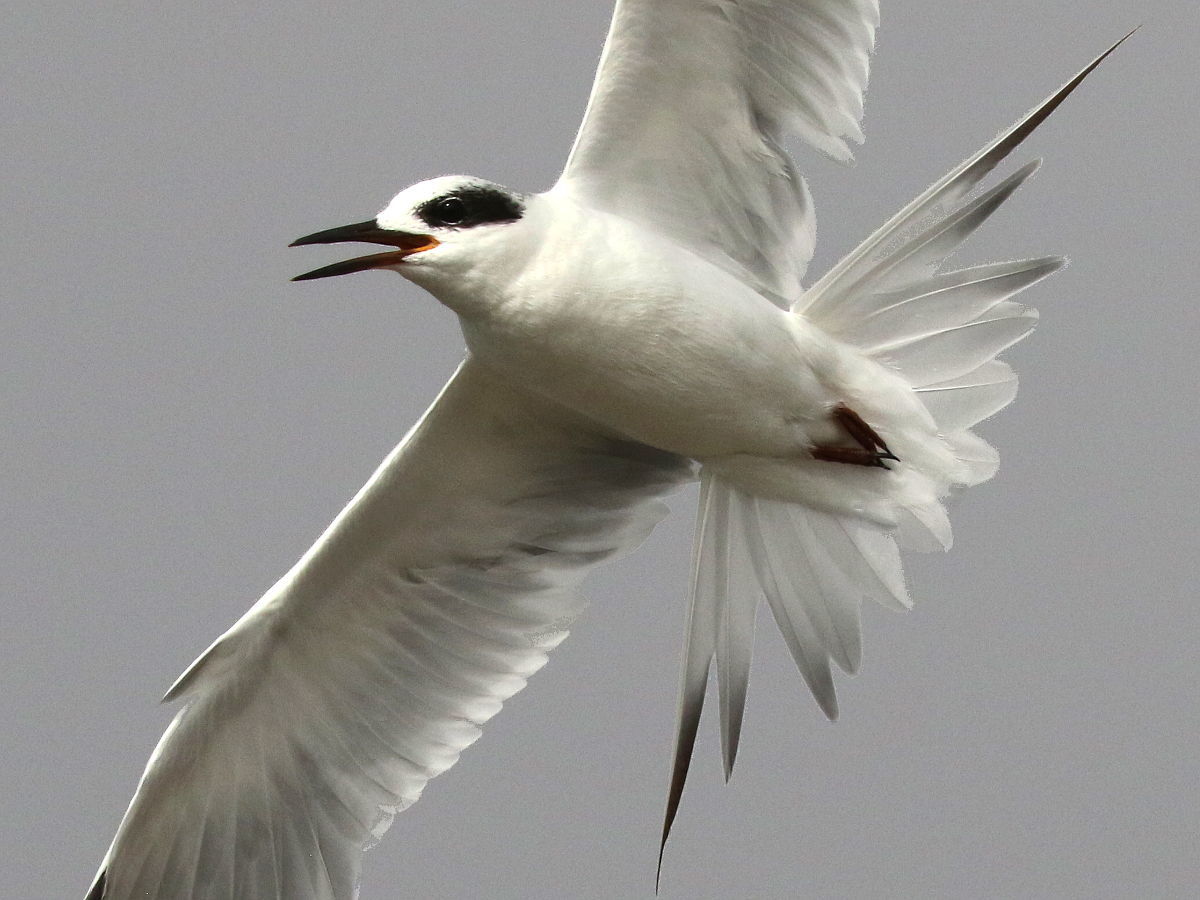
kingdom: Animalia
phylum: Chordata
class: Aves
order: Charadriiformes
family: Laridae
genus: Sterna
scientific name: Sterna forsteri
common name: Forster's tern
